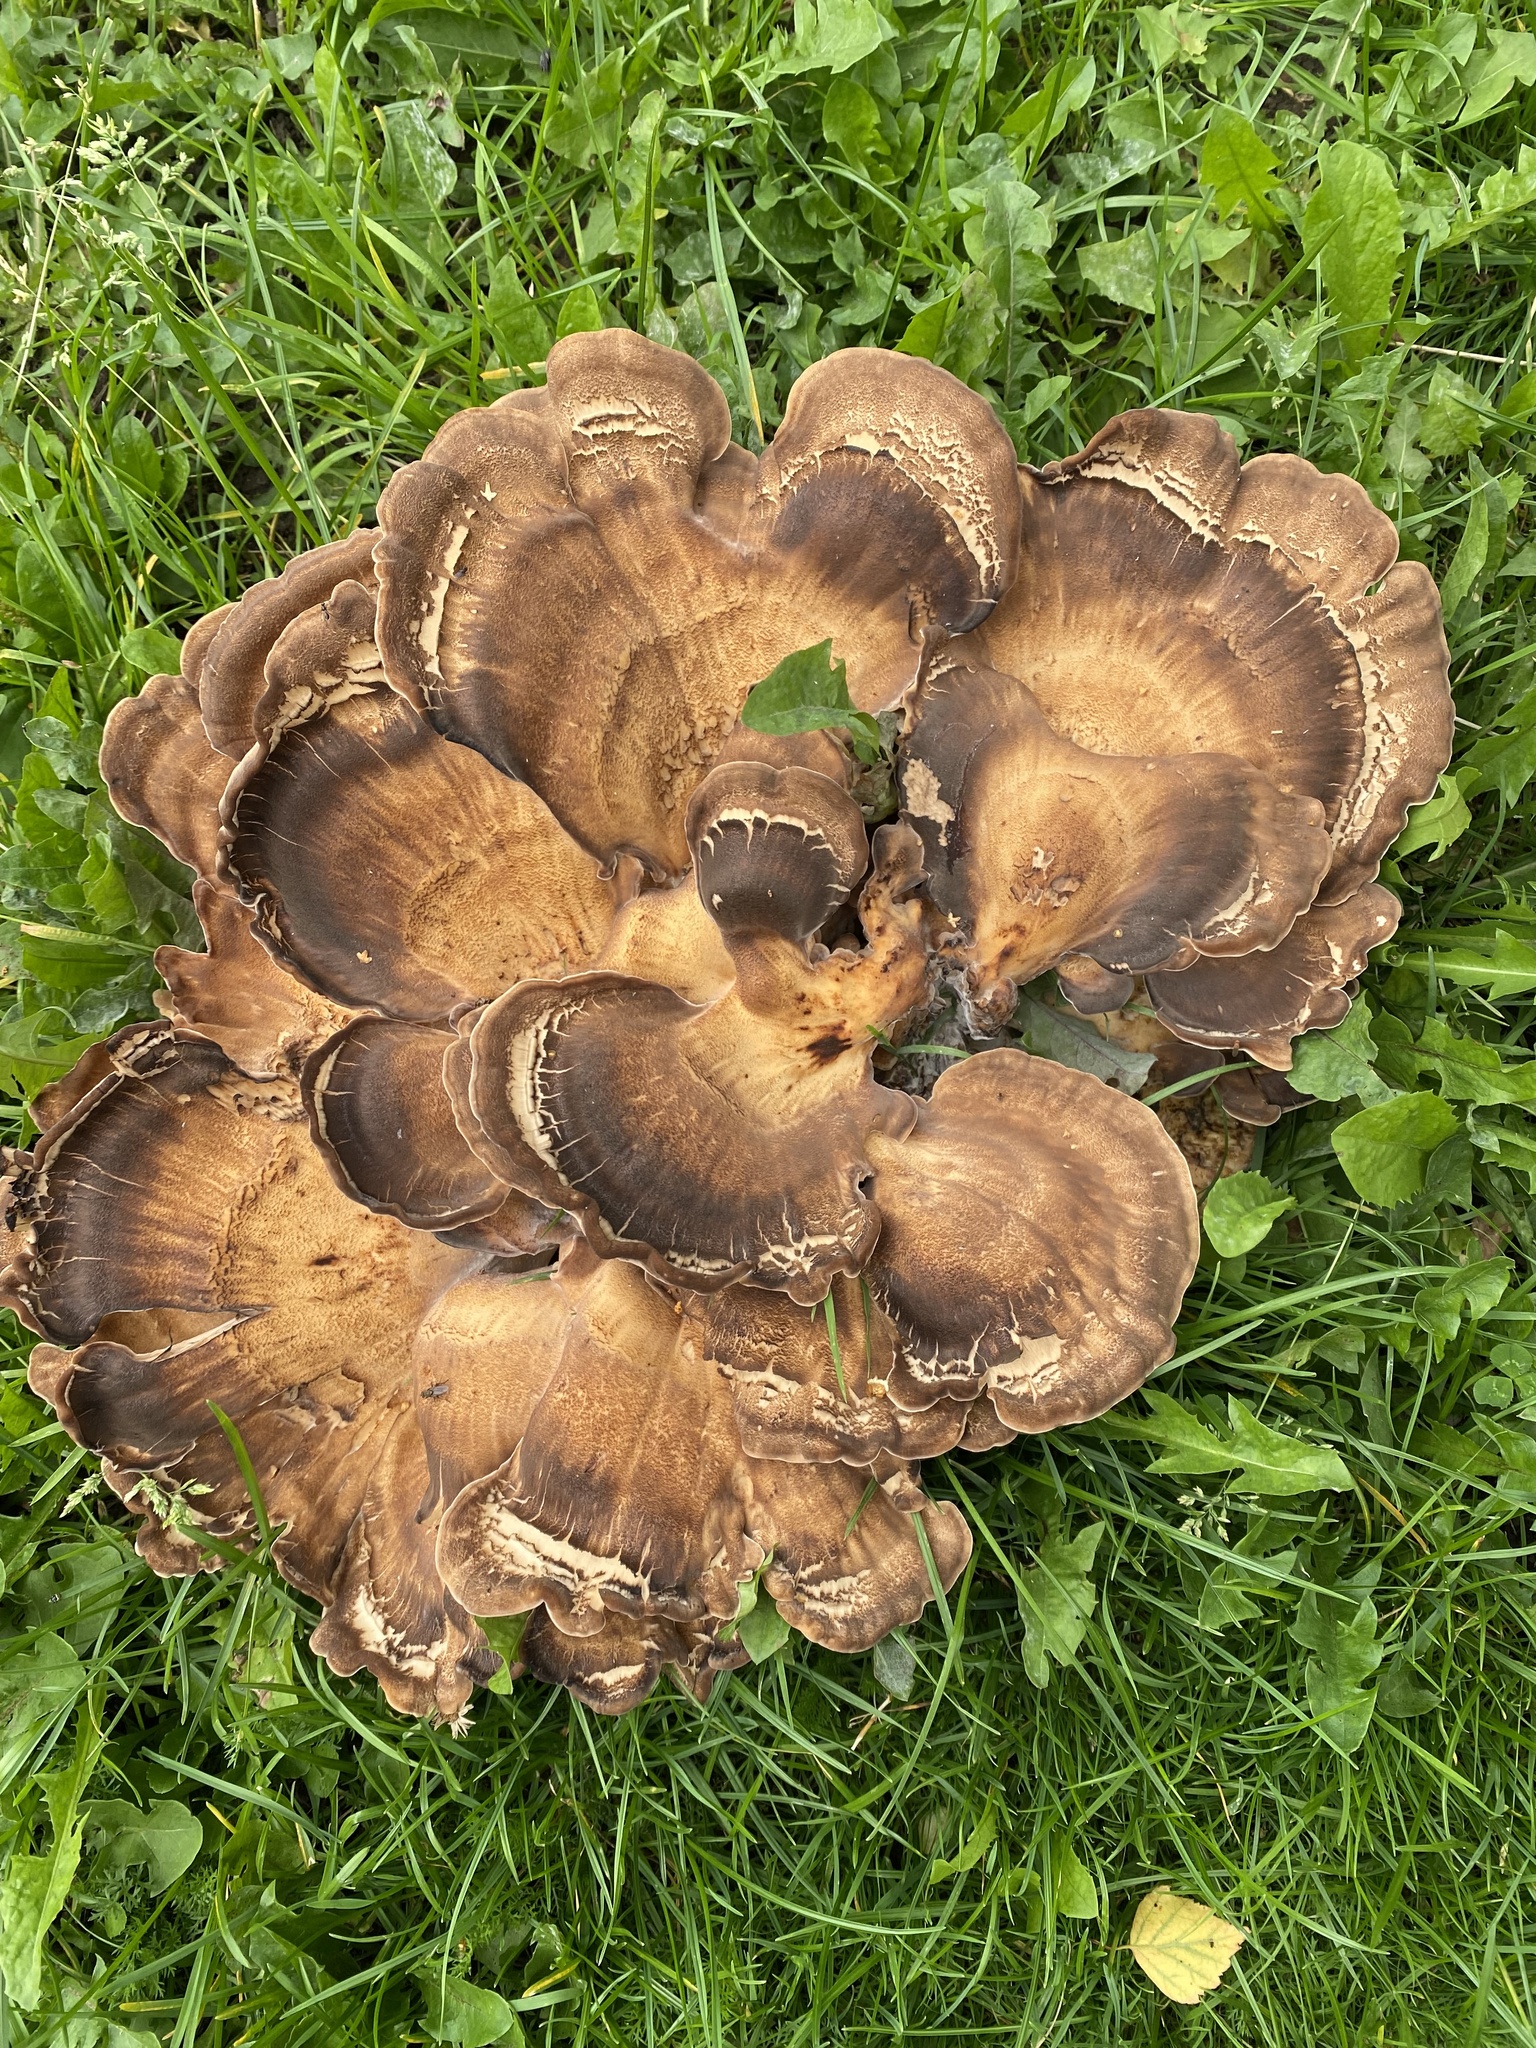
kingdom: Fungi
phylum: Basidiomycota
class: Agaricomycetes
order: Polyporales
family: Meripilaceae
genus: Meripilus
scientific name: Meripilus giganteus
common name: Giant polypore
